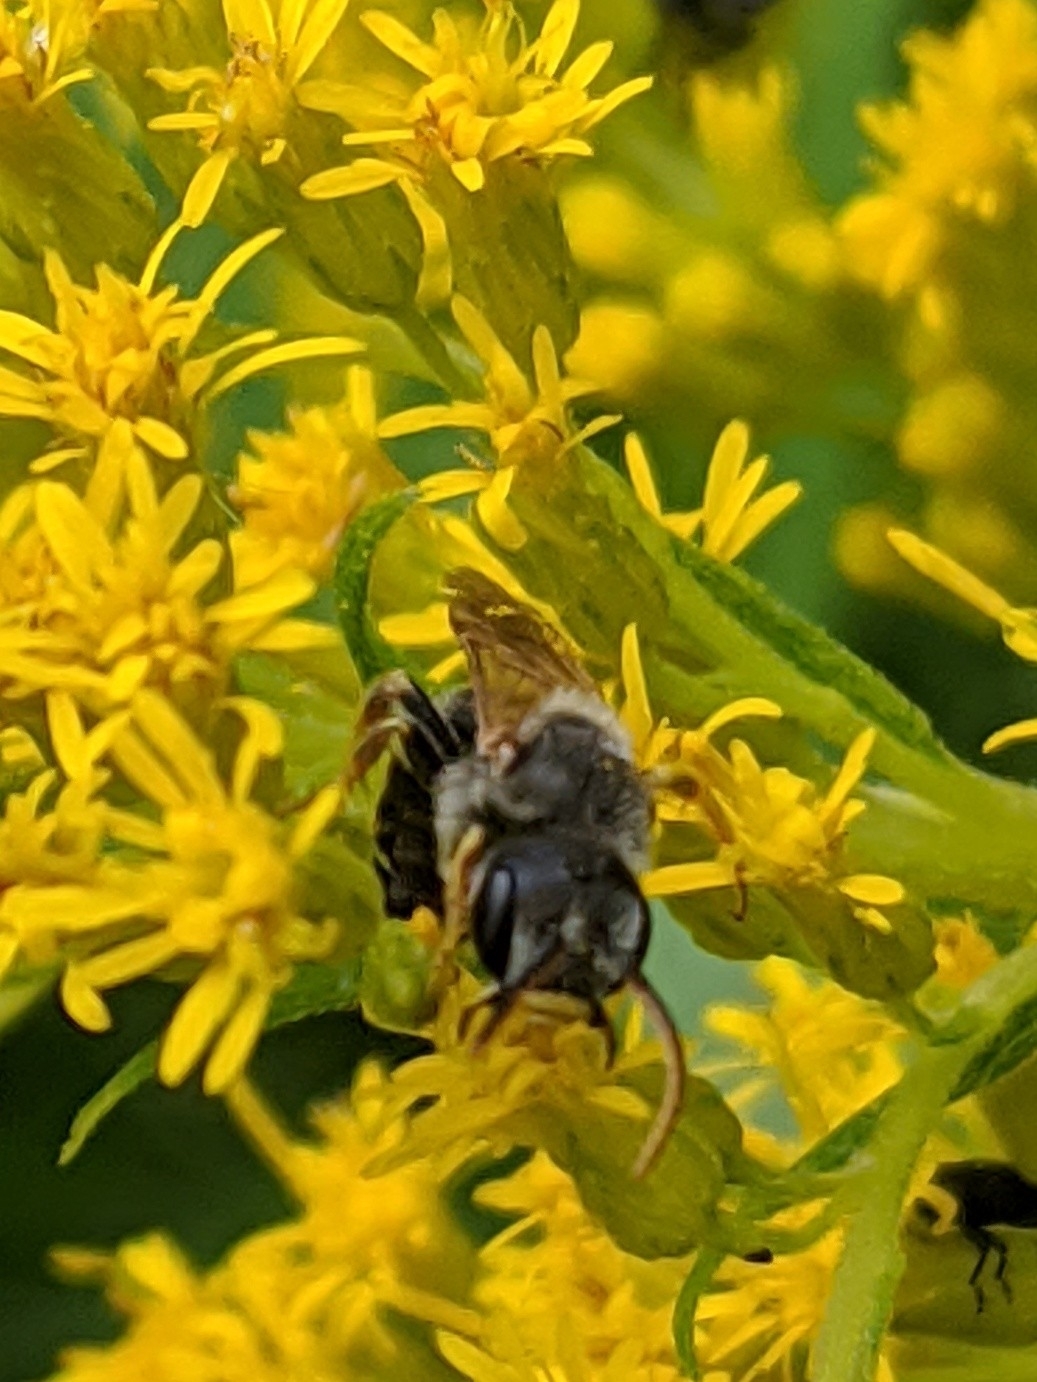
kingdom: Animalia
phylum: Arthropoda
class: Insecta
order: Hymenoptera
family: Halictidae
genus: Halictus
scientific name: Halictus ligatus
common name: Ligated furrow bee
